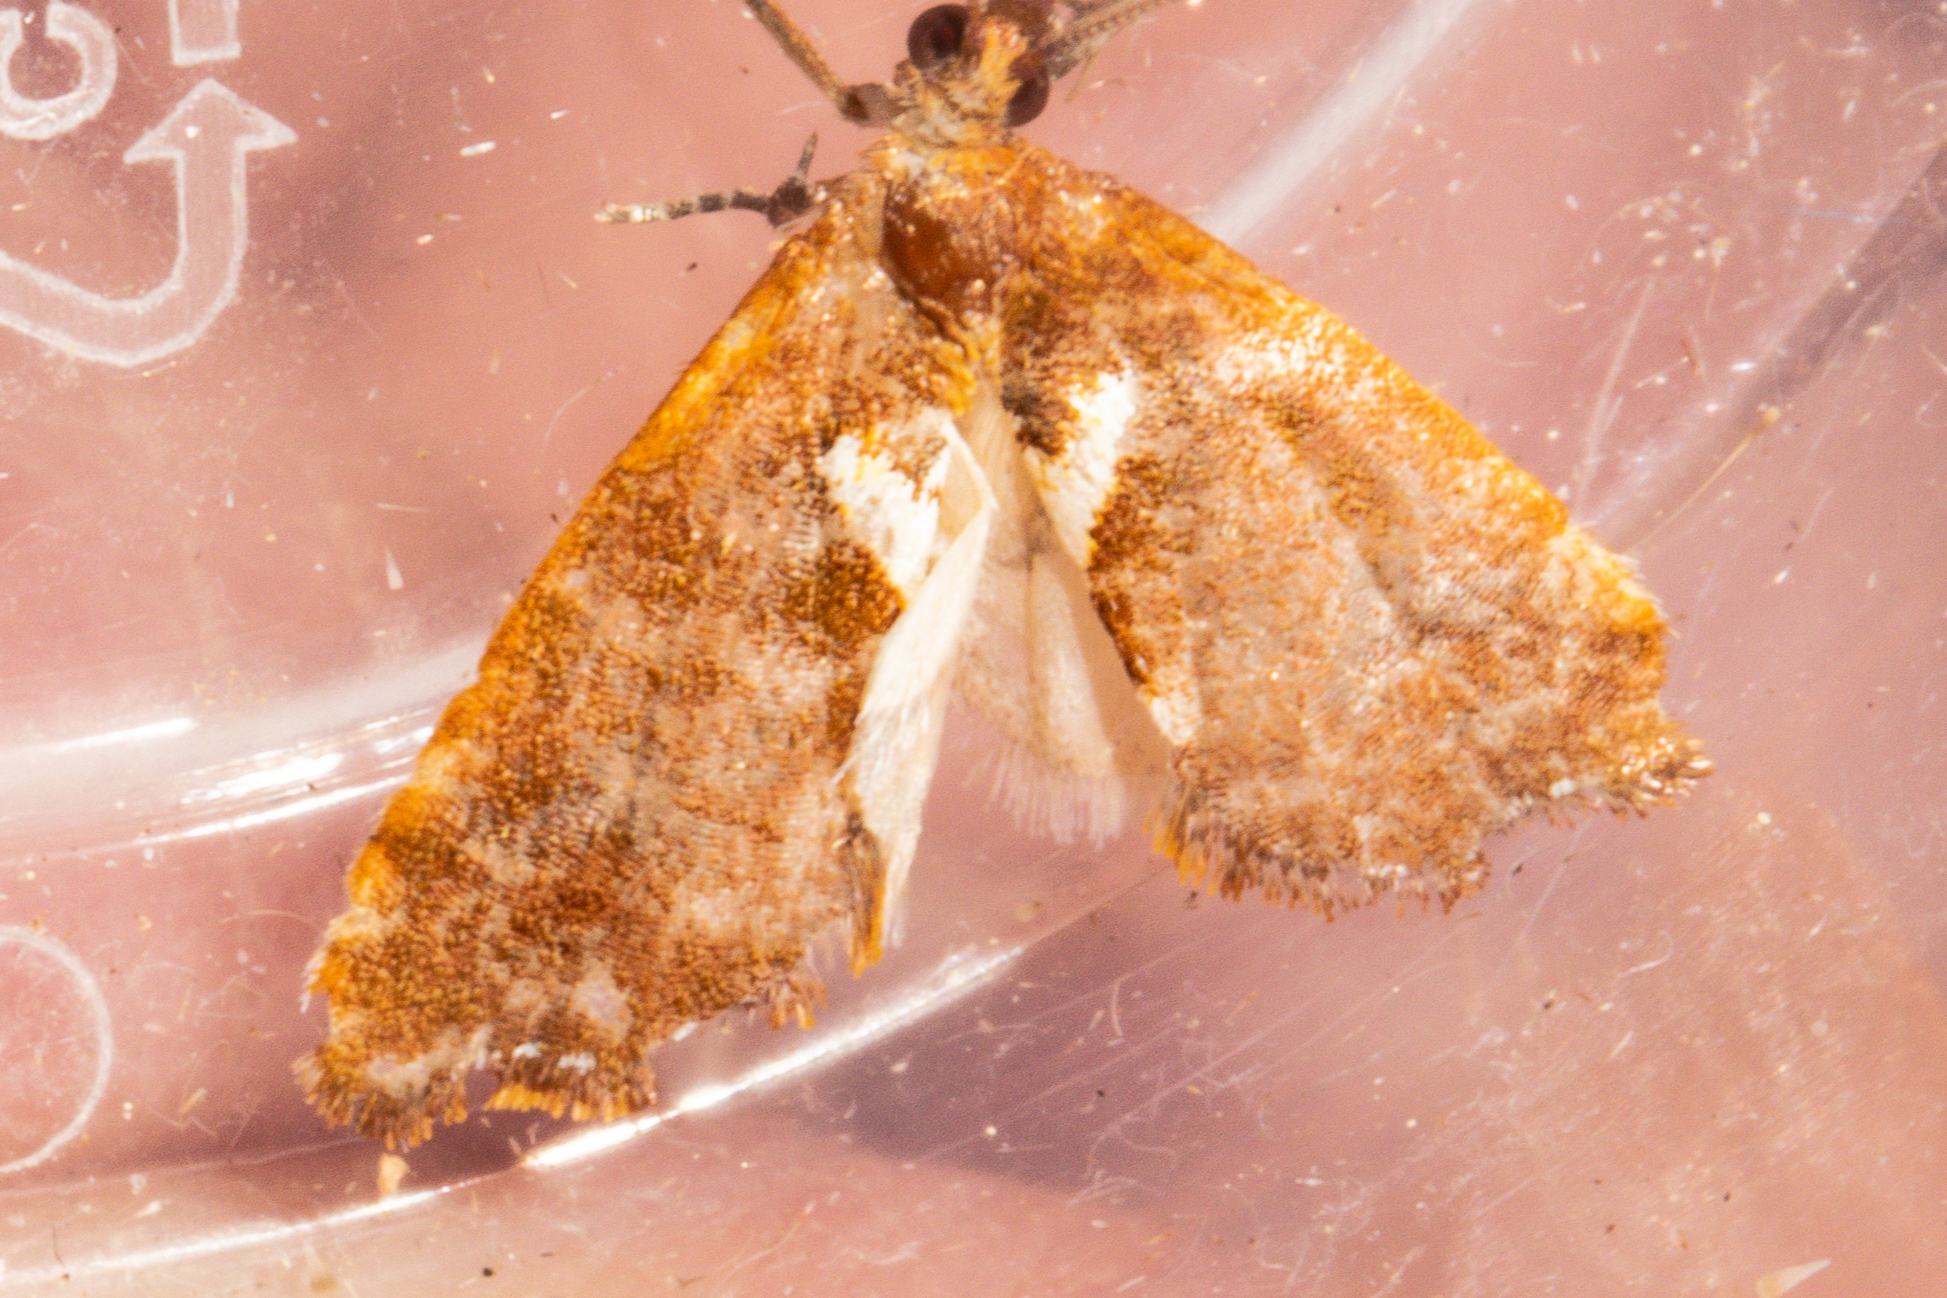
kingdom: Animalia
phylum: Arthropoda
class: Insecta
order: Lepidoptera
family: Tortricidae
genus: Pyrgotis
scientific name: Pyrgotis pyramidias
